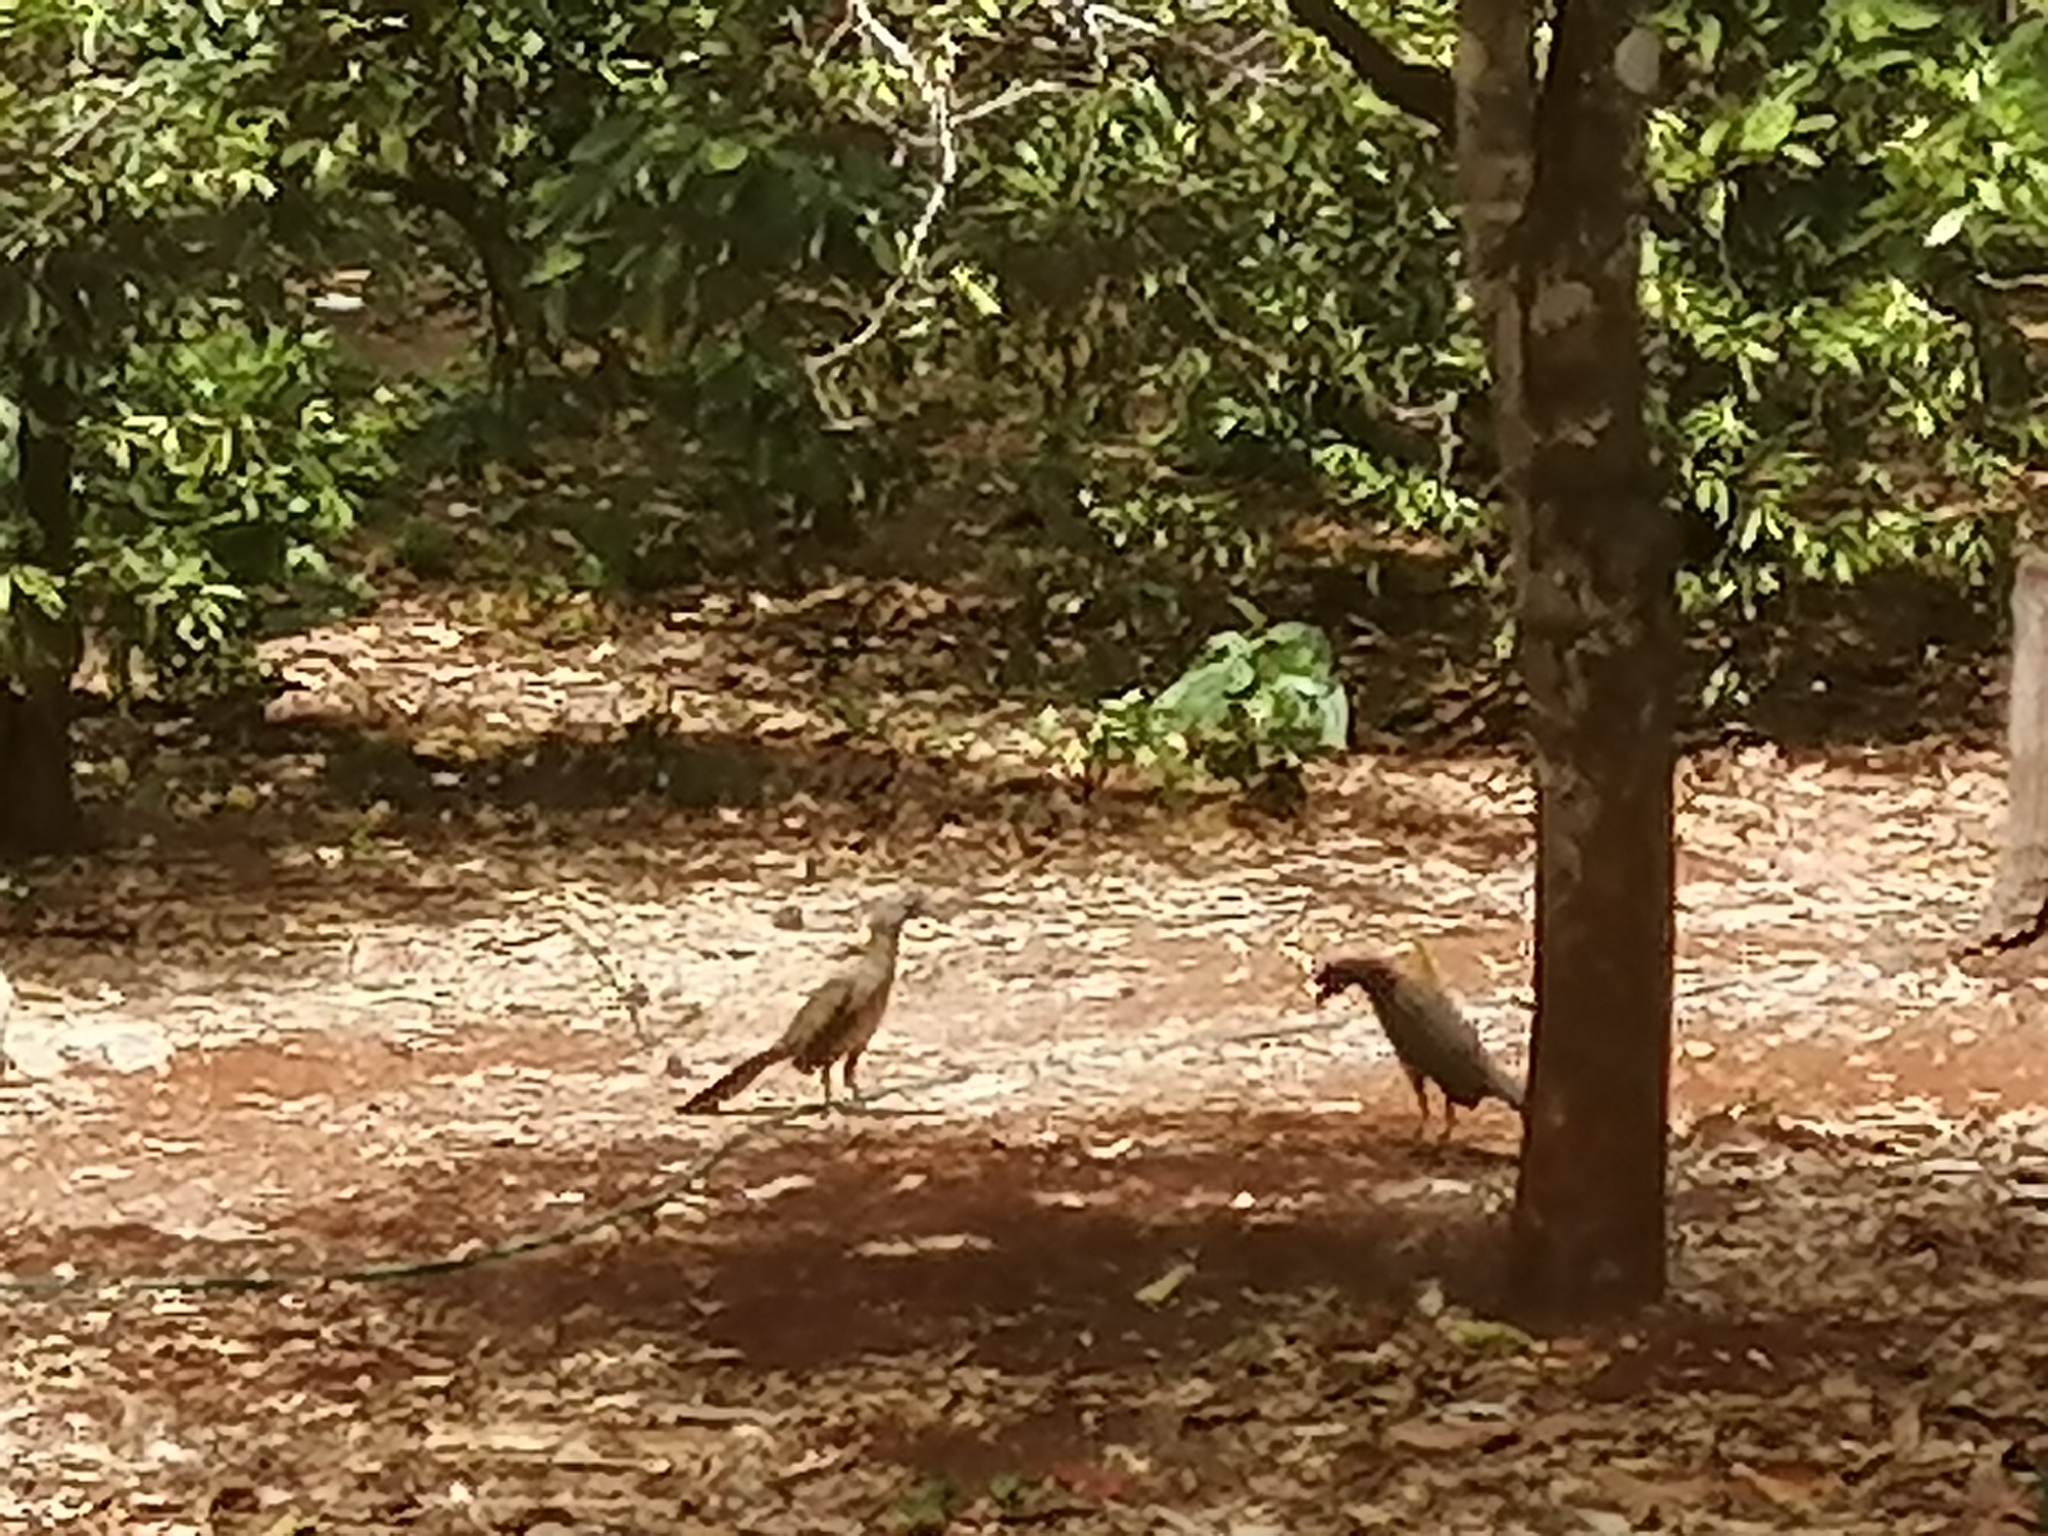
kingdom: Animalia
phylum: Chordata
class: Aves
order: Galliformes
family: Cracidae
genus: Ortalis
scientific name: Ortalis vetula
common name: Plain chachalaca
